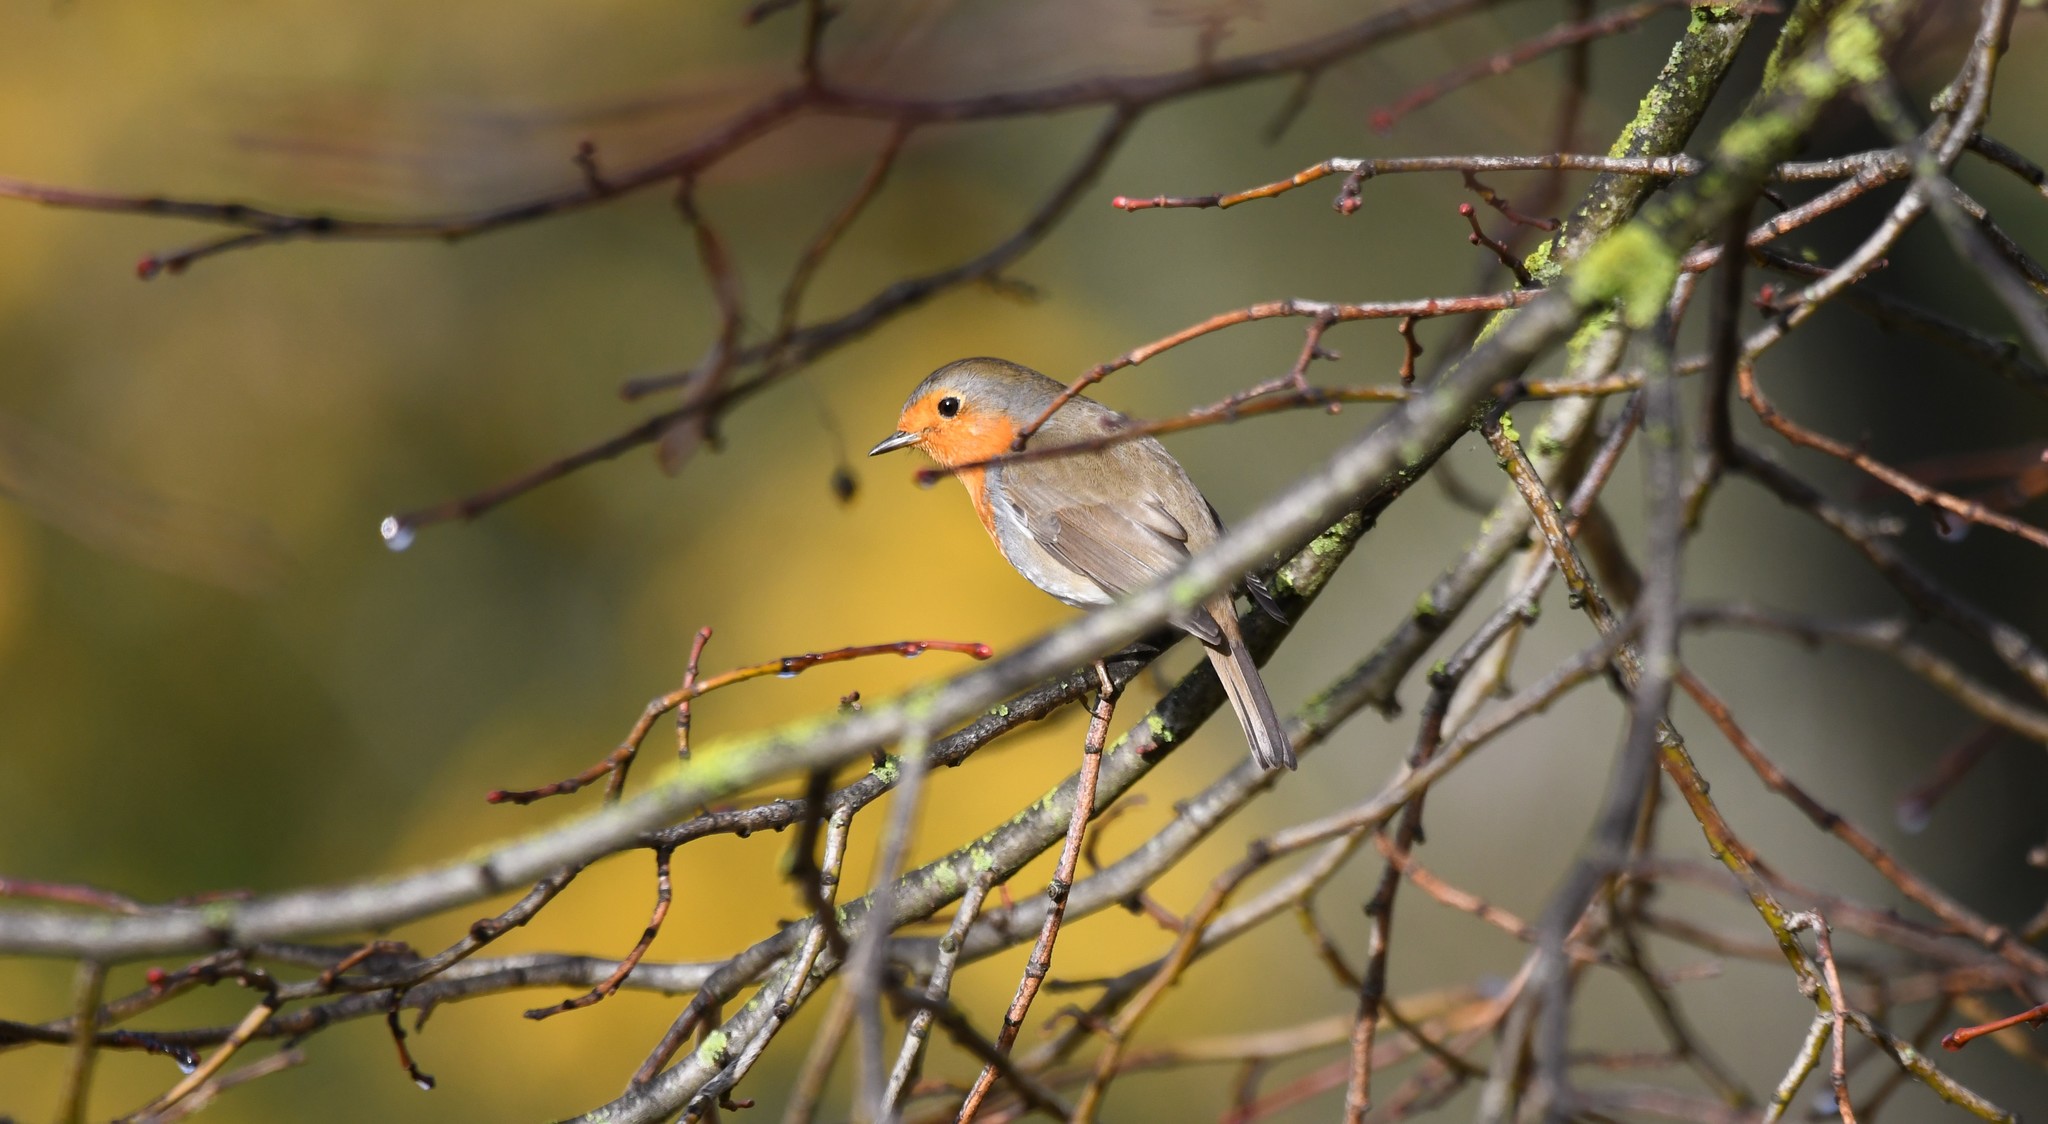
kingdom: Animalia
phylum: Chordata
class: Aves
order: Passeriformes
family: Muscicapidae
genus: Erithacus
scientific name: Erithacus rubecula
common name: European robin
